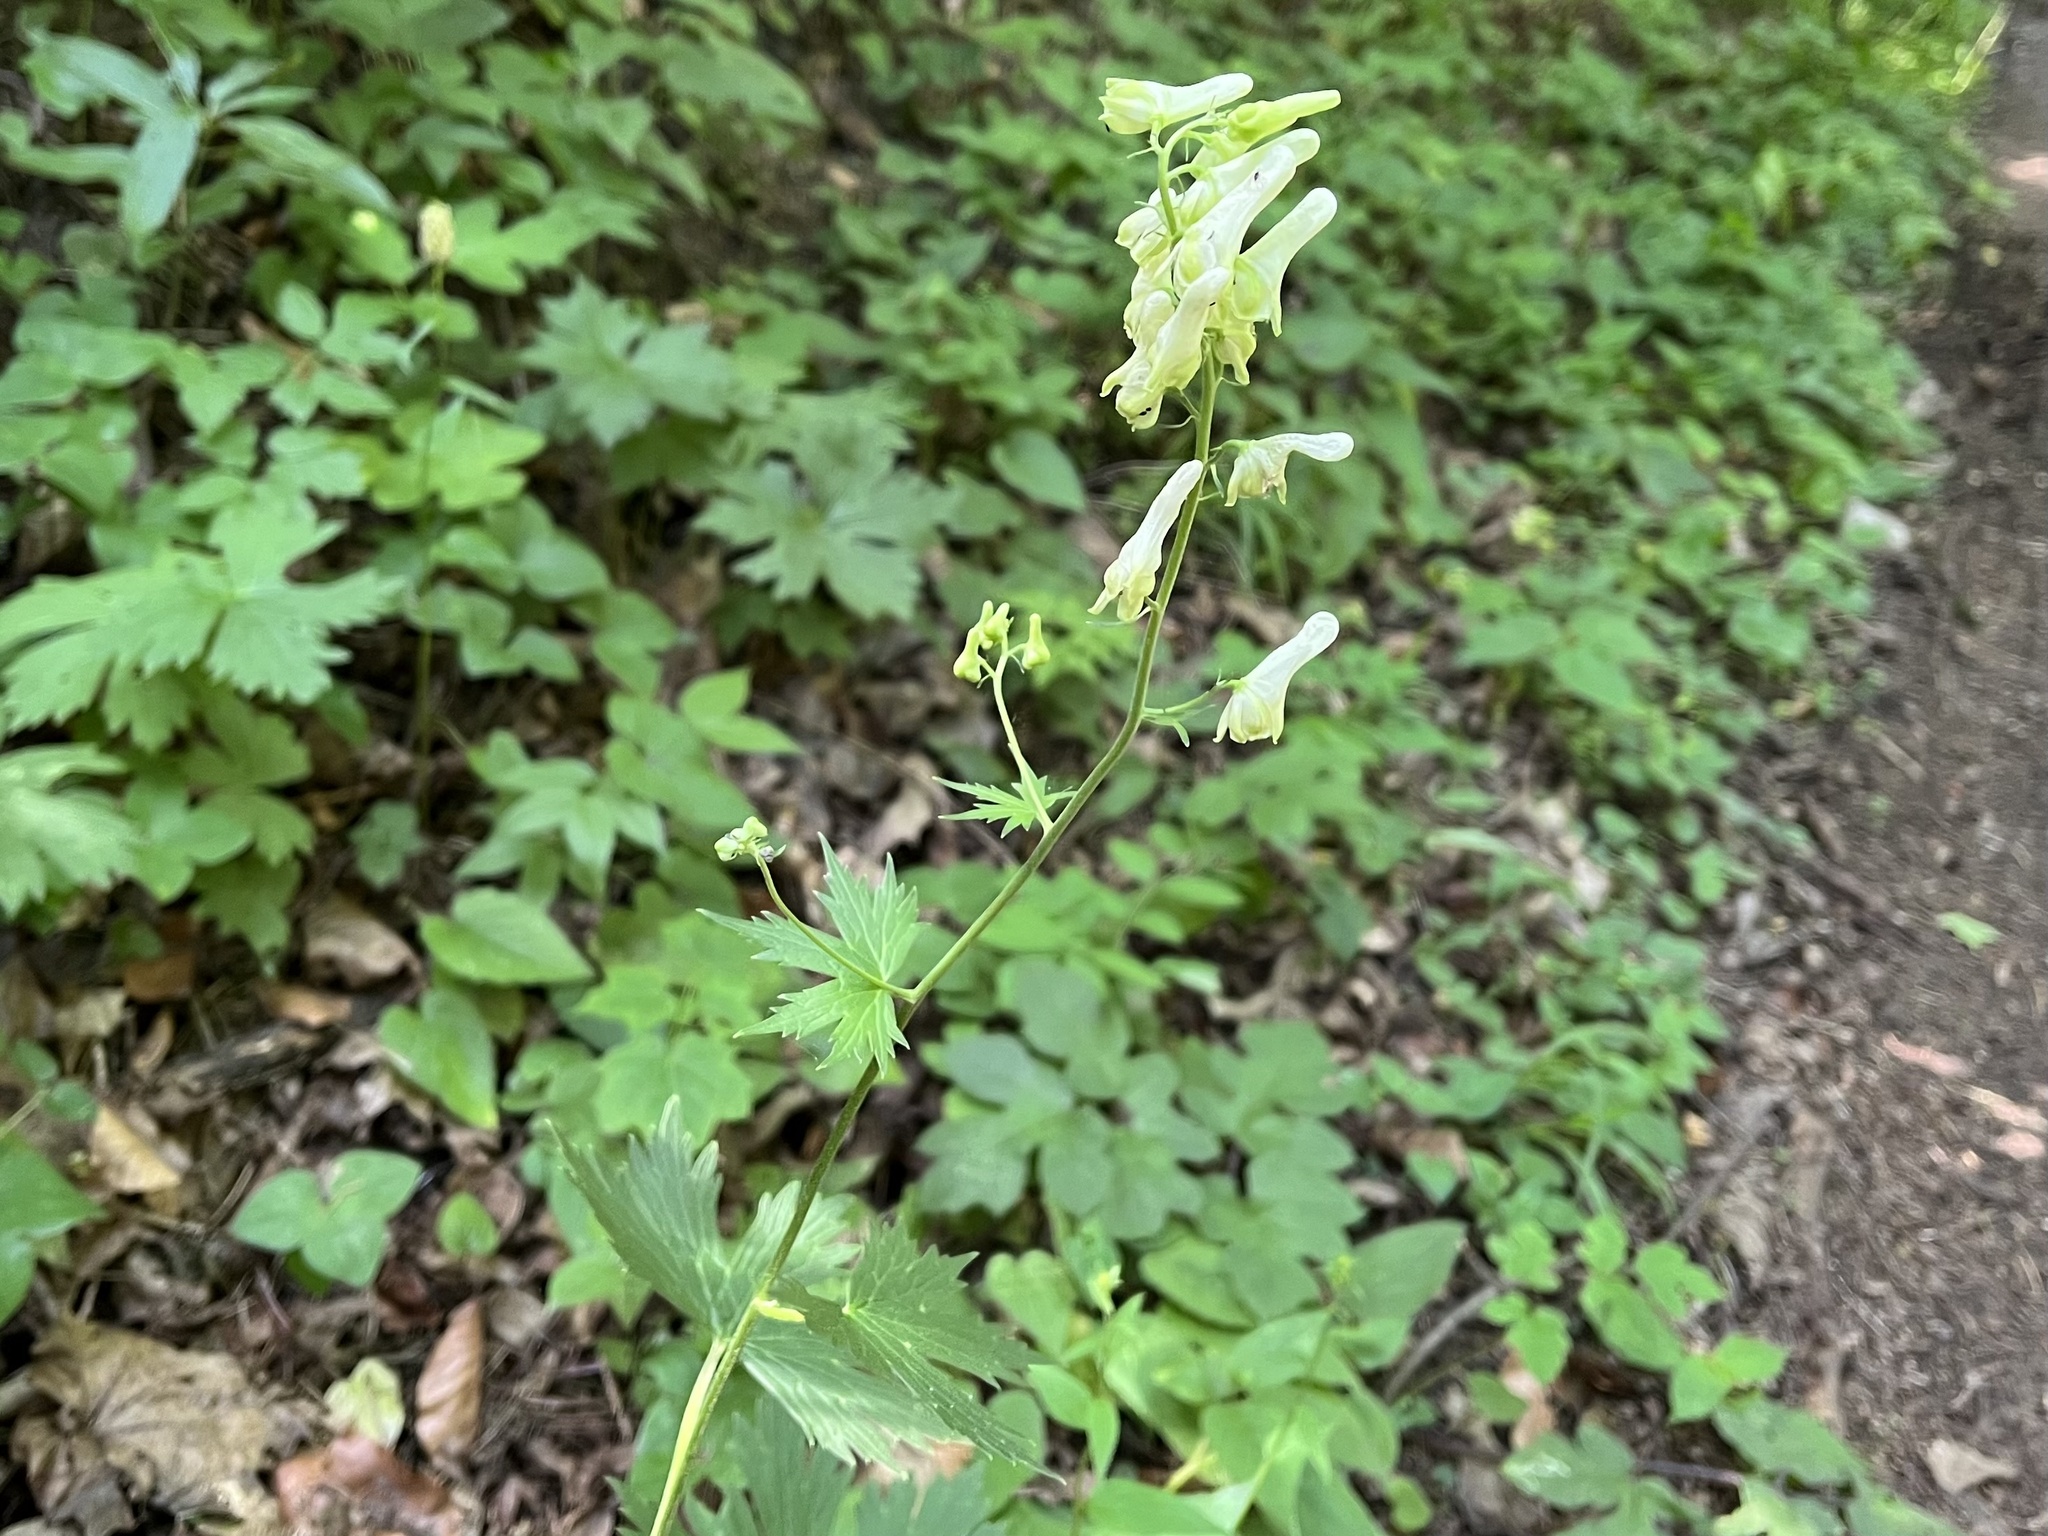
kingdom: Plantae
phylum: Tracheophyta
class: Magnoliopsida
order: Ranunculales
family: Ranunculaceae
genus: Aconitum
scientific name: Aconitum lycoctonum
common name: Wolf's-bane
